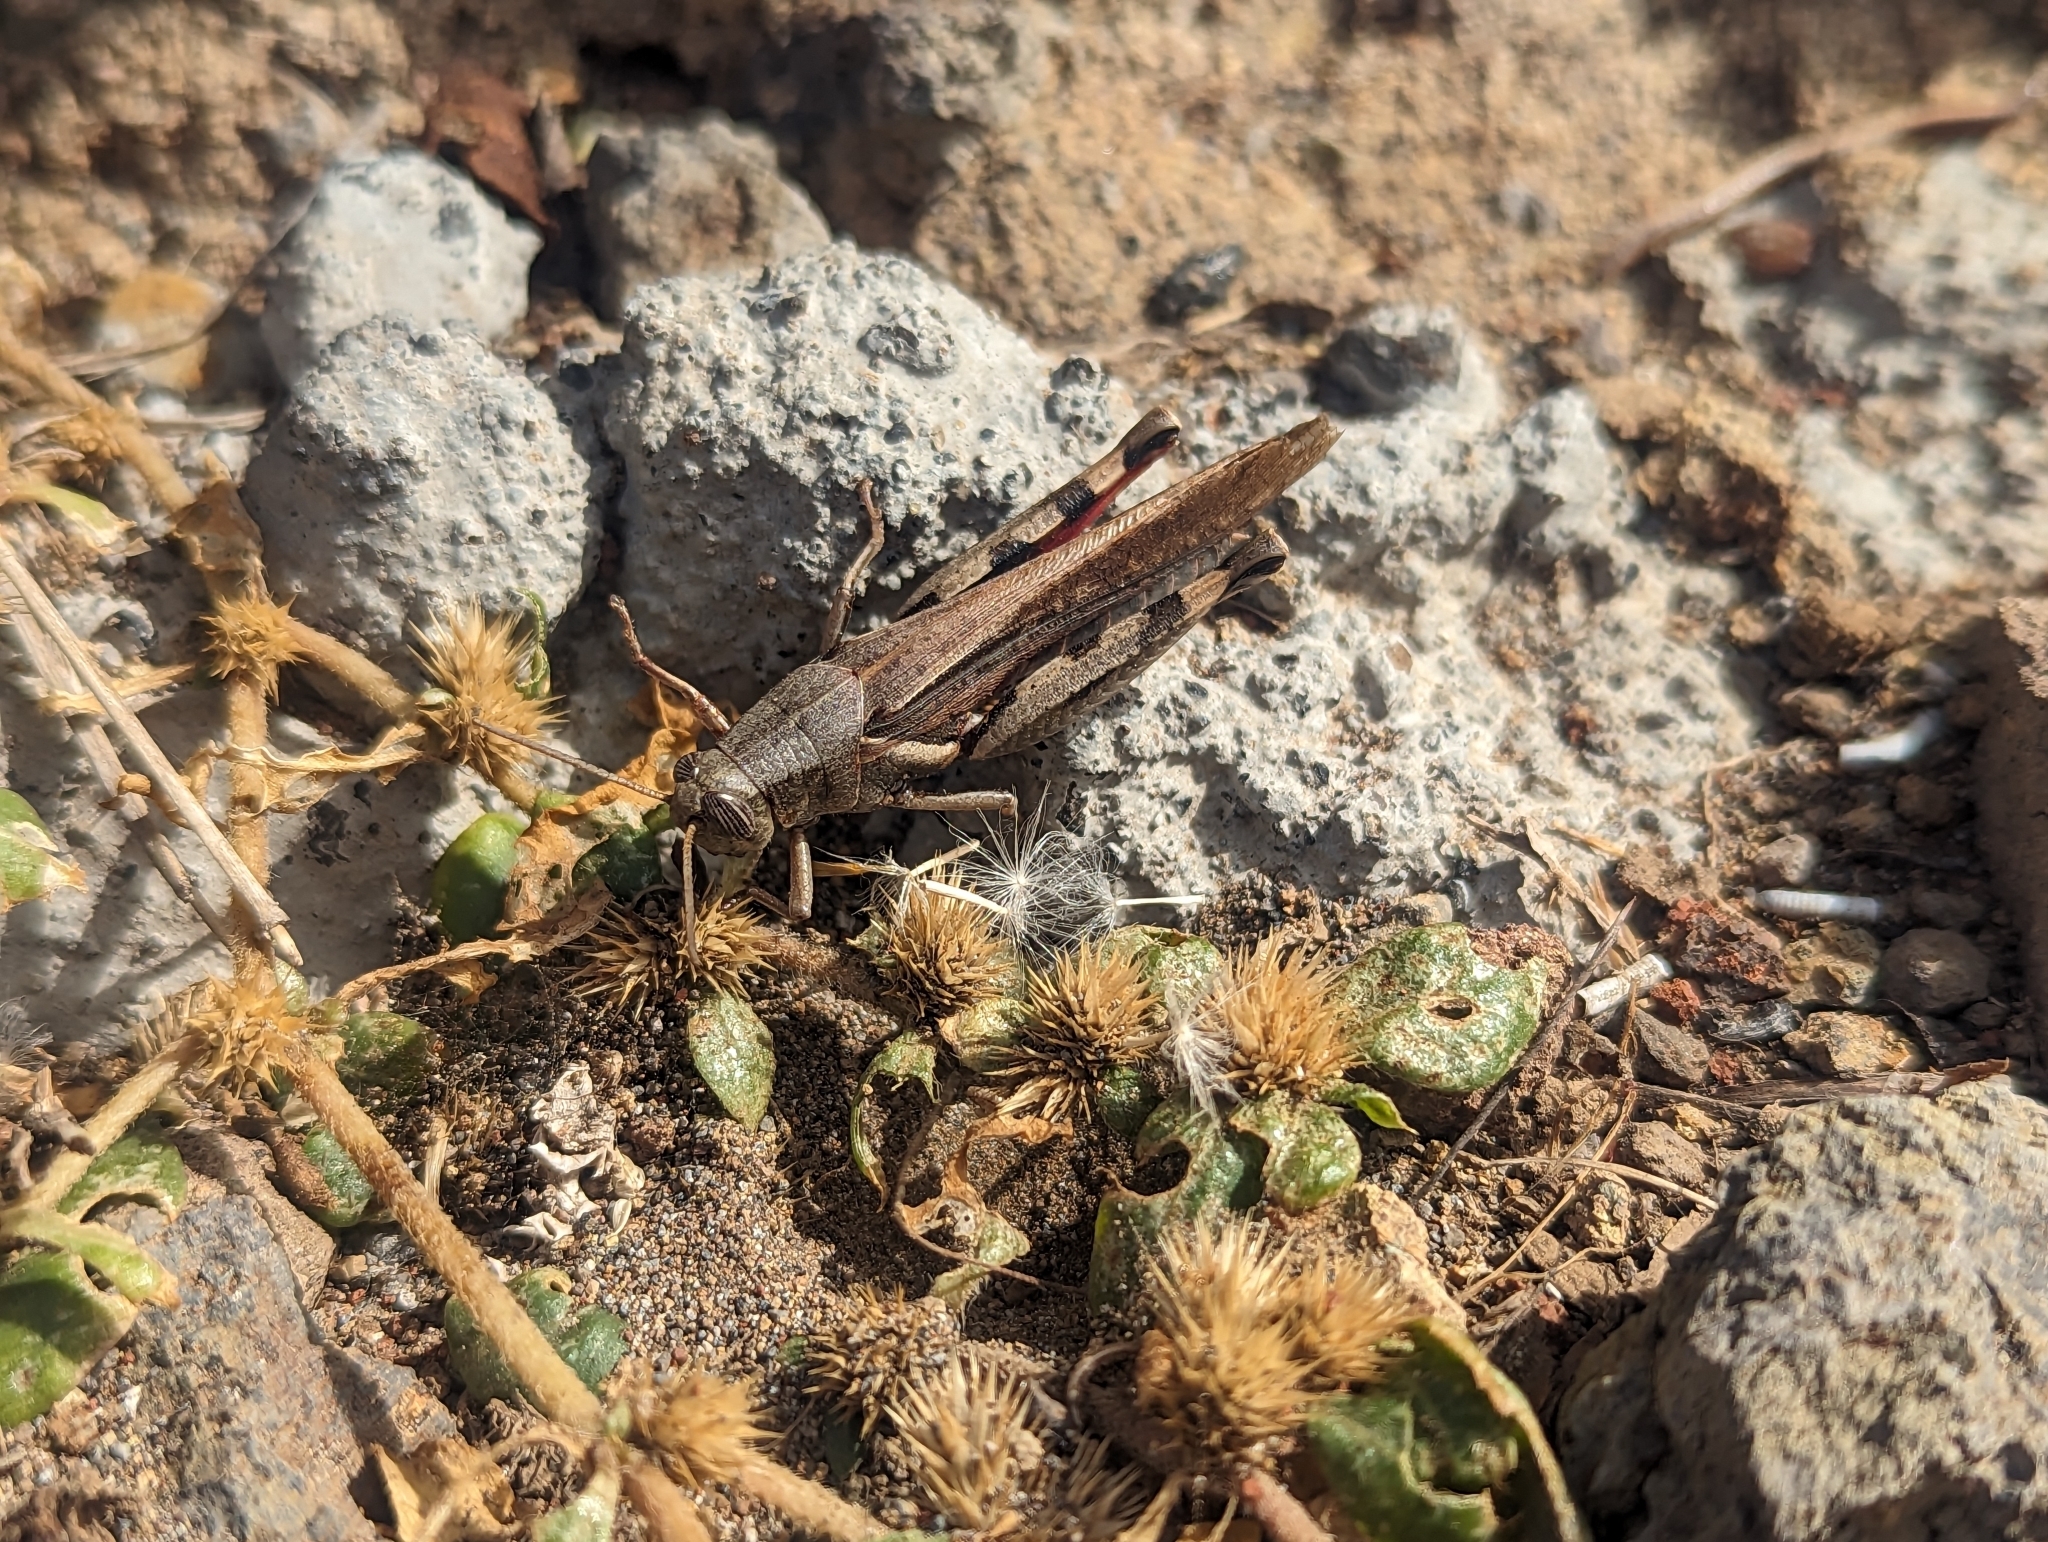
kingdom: Animalia
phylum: Arthropoda
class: Insecta
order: Orthoptera
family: Acrididae
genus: Diabolocatantops
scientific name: Diabolocatantops axillaris
